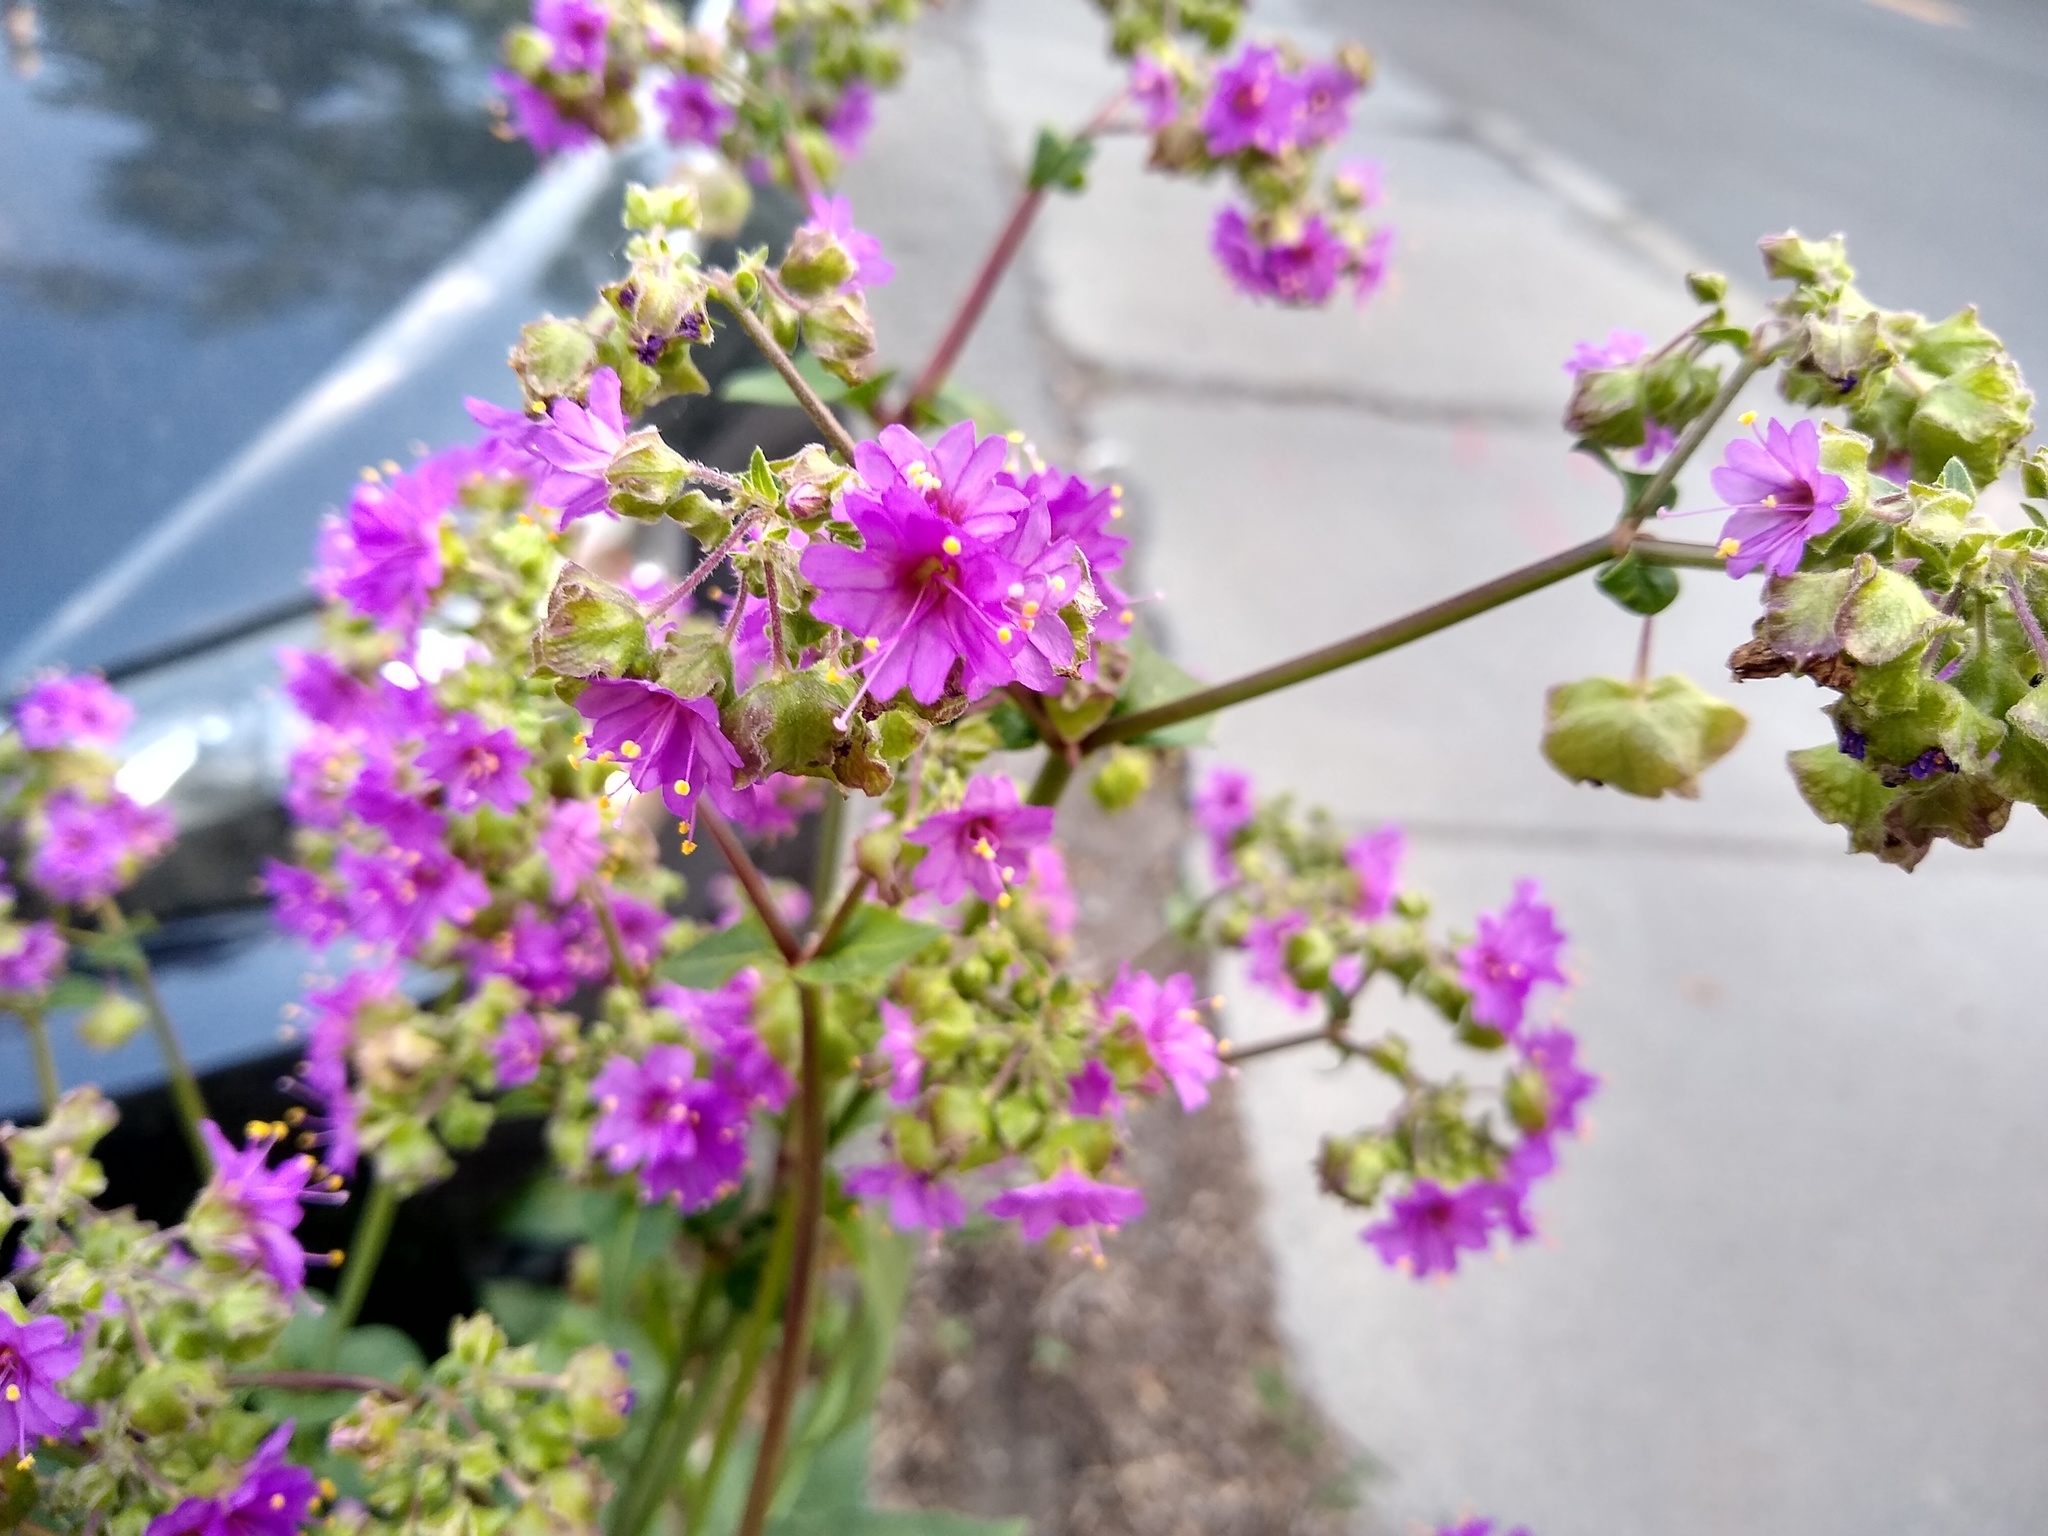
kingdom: Plantae
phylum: Tracheophyta
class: Magnoliopsida
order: Caryophyllales
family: Nyctaginaceae
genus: Mirabilis
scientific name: Mirabilis nyctaginea
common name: Umbrella wort
